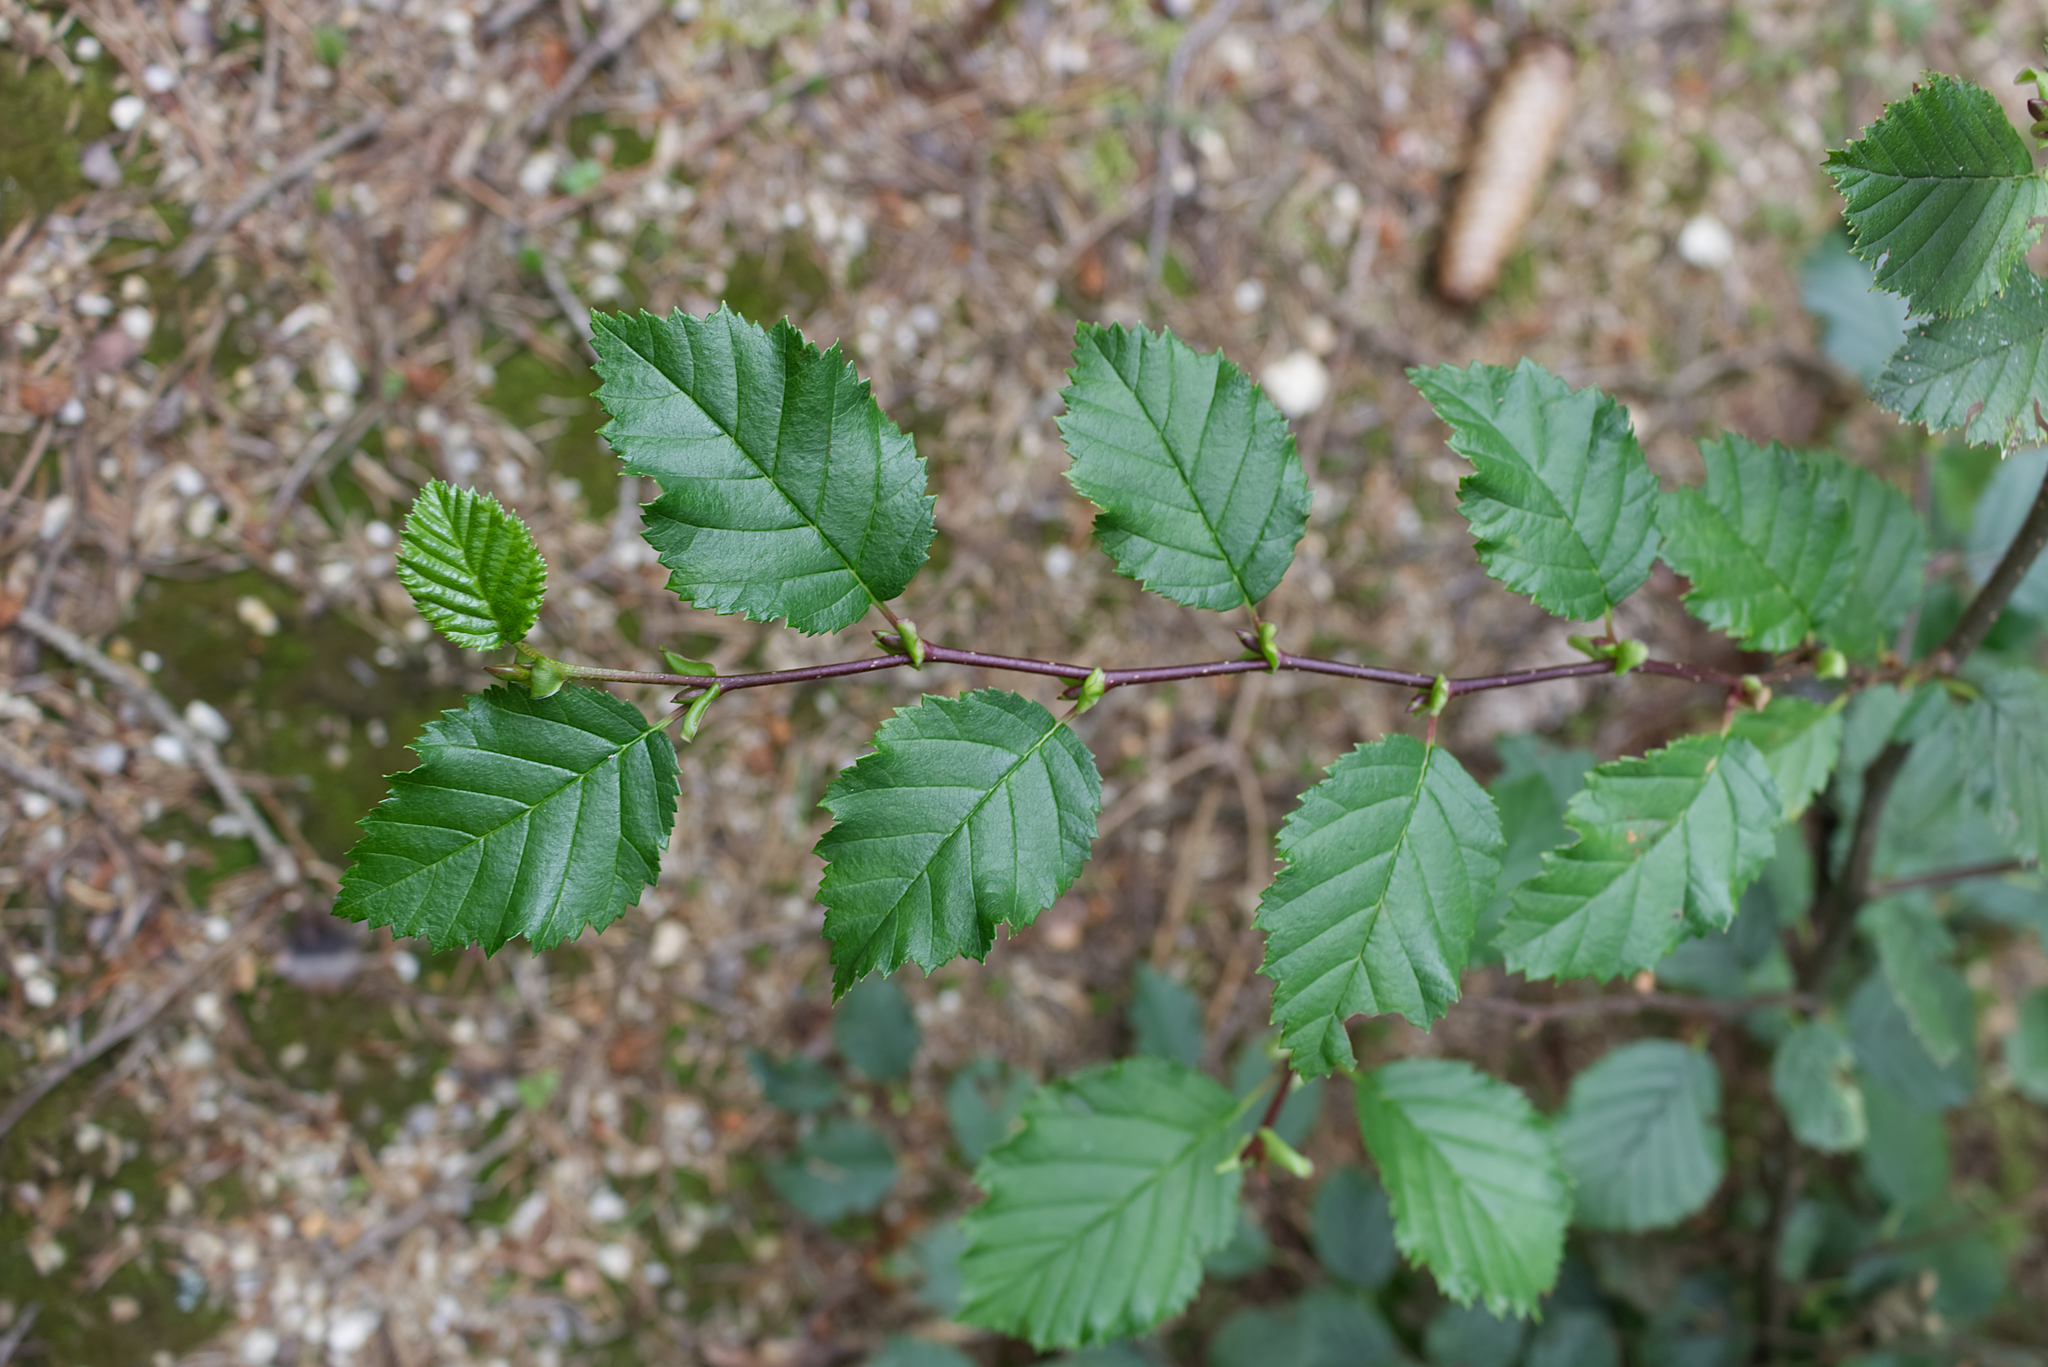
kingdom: Plantae
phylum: Tracheophyta
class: Magnoliopsida
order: Fagales
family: Betulaceae
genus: Alnus
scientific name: Alnus alnobetula
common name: Green alder
